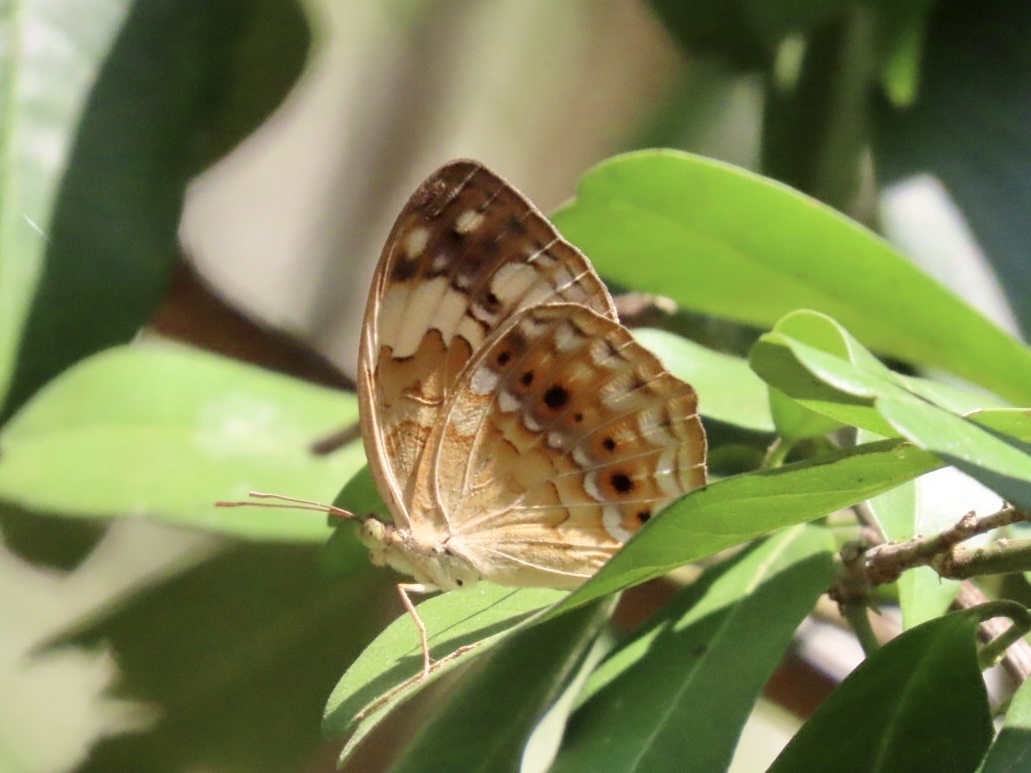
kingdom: Animalia
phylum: Arthropoda
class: Insecta
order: Lepidoptera
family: Nymphalidae
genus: Cupha
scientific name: Cupha erymanthis
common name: Rustic
